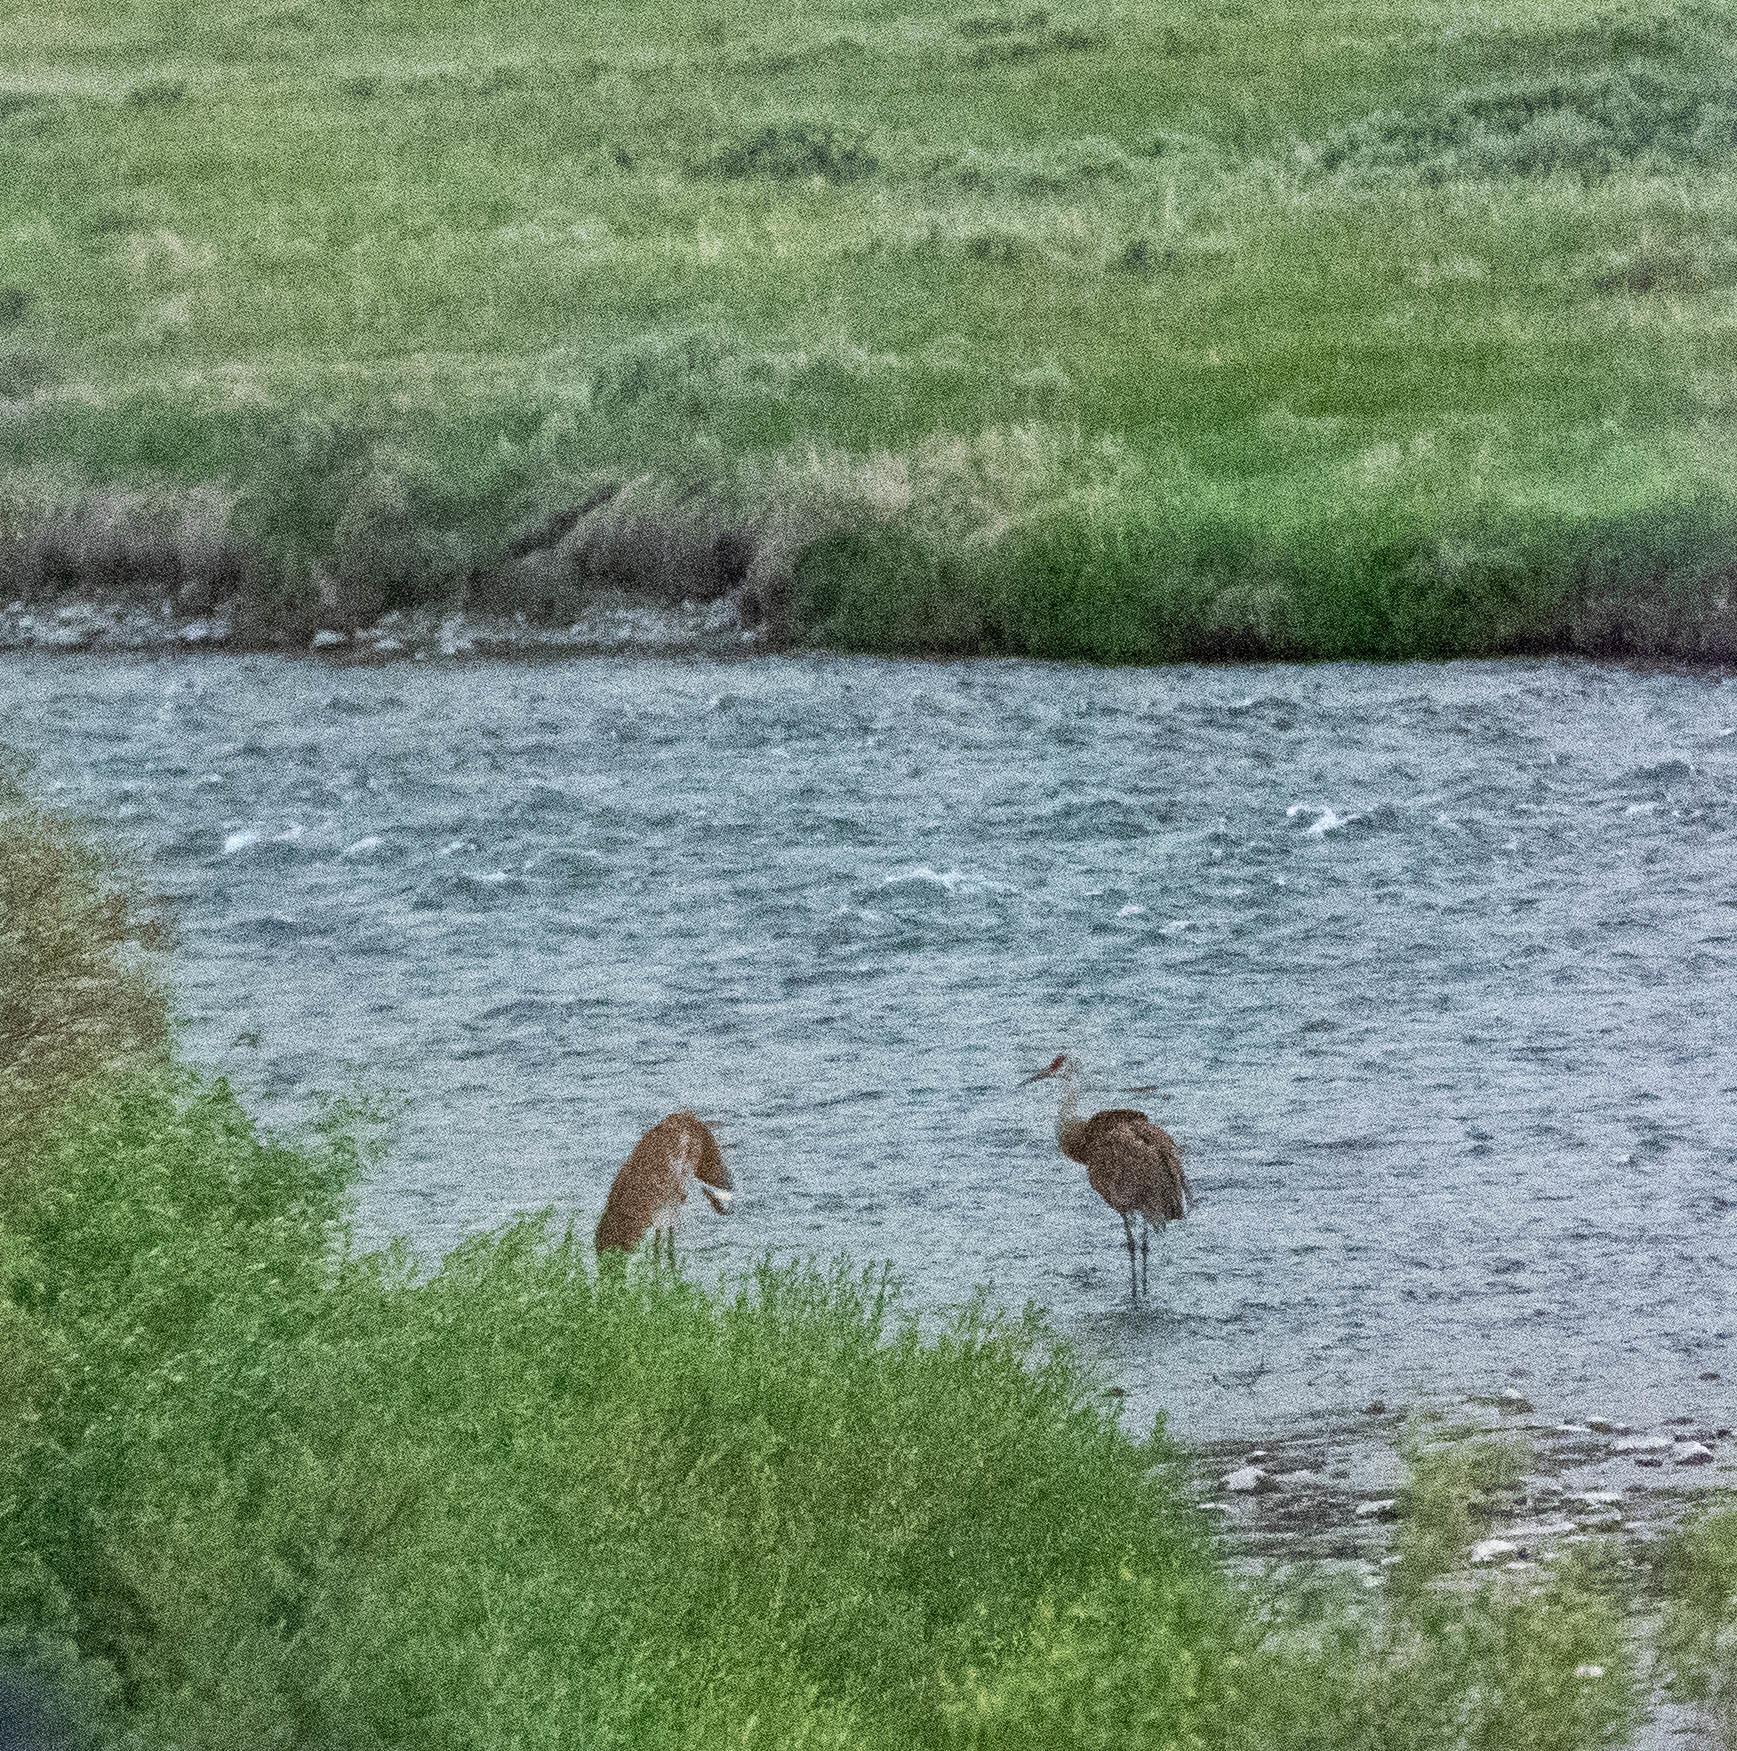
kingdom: Animalia
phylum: Chordata
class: Aves
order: Gruiformes
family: Gruidae
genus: Grus
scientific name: Grus canadensis
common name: Sandhill crane
